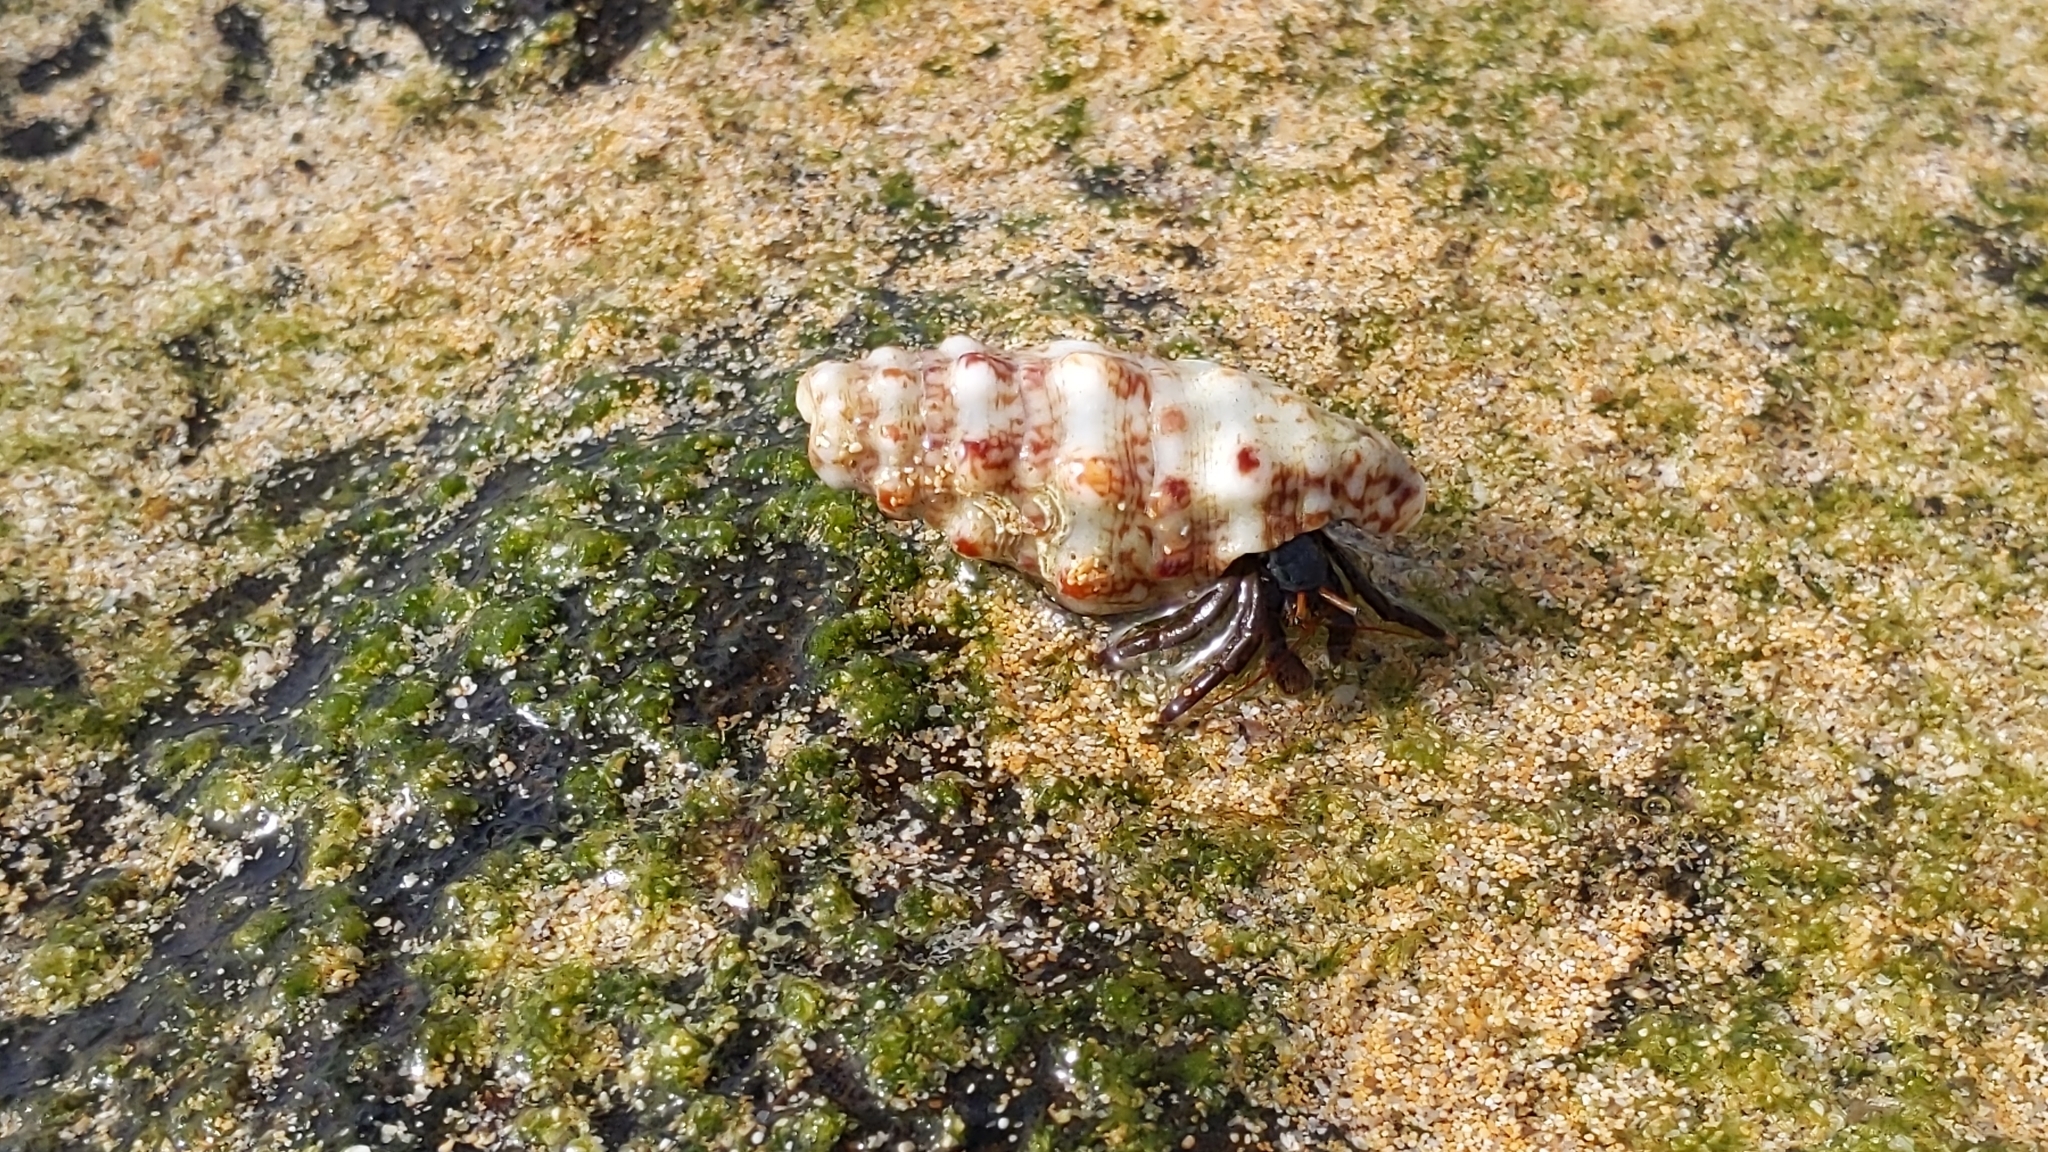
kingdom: Animalia
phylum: Arthropoda
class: Malacostraca
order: Decapoda
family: Diogenidae
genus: Clibanarius
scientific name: Clibanarius aequabilis
